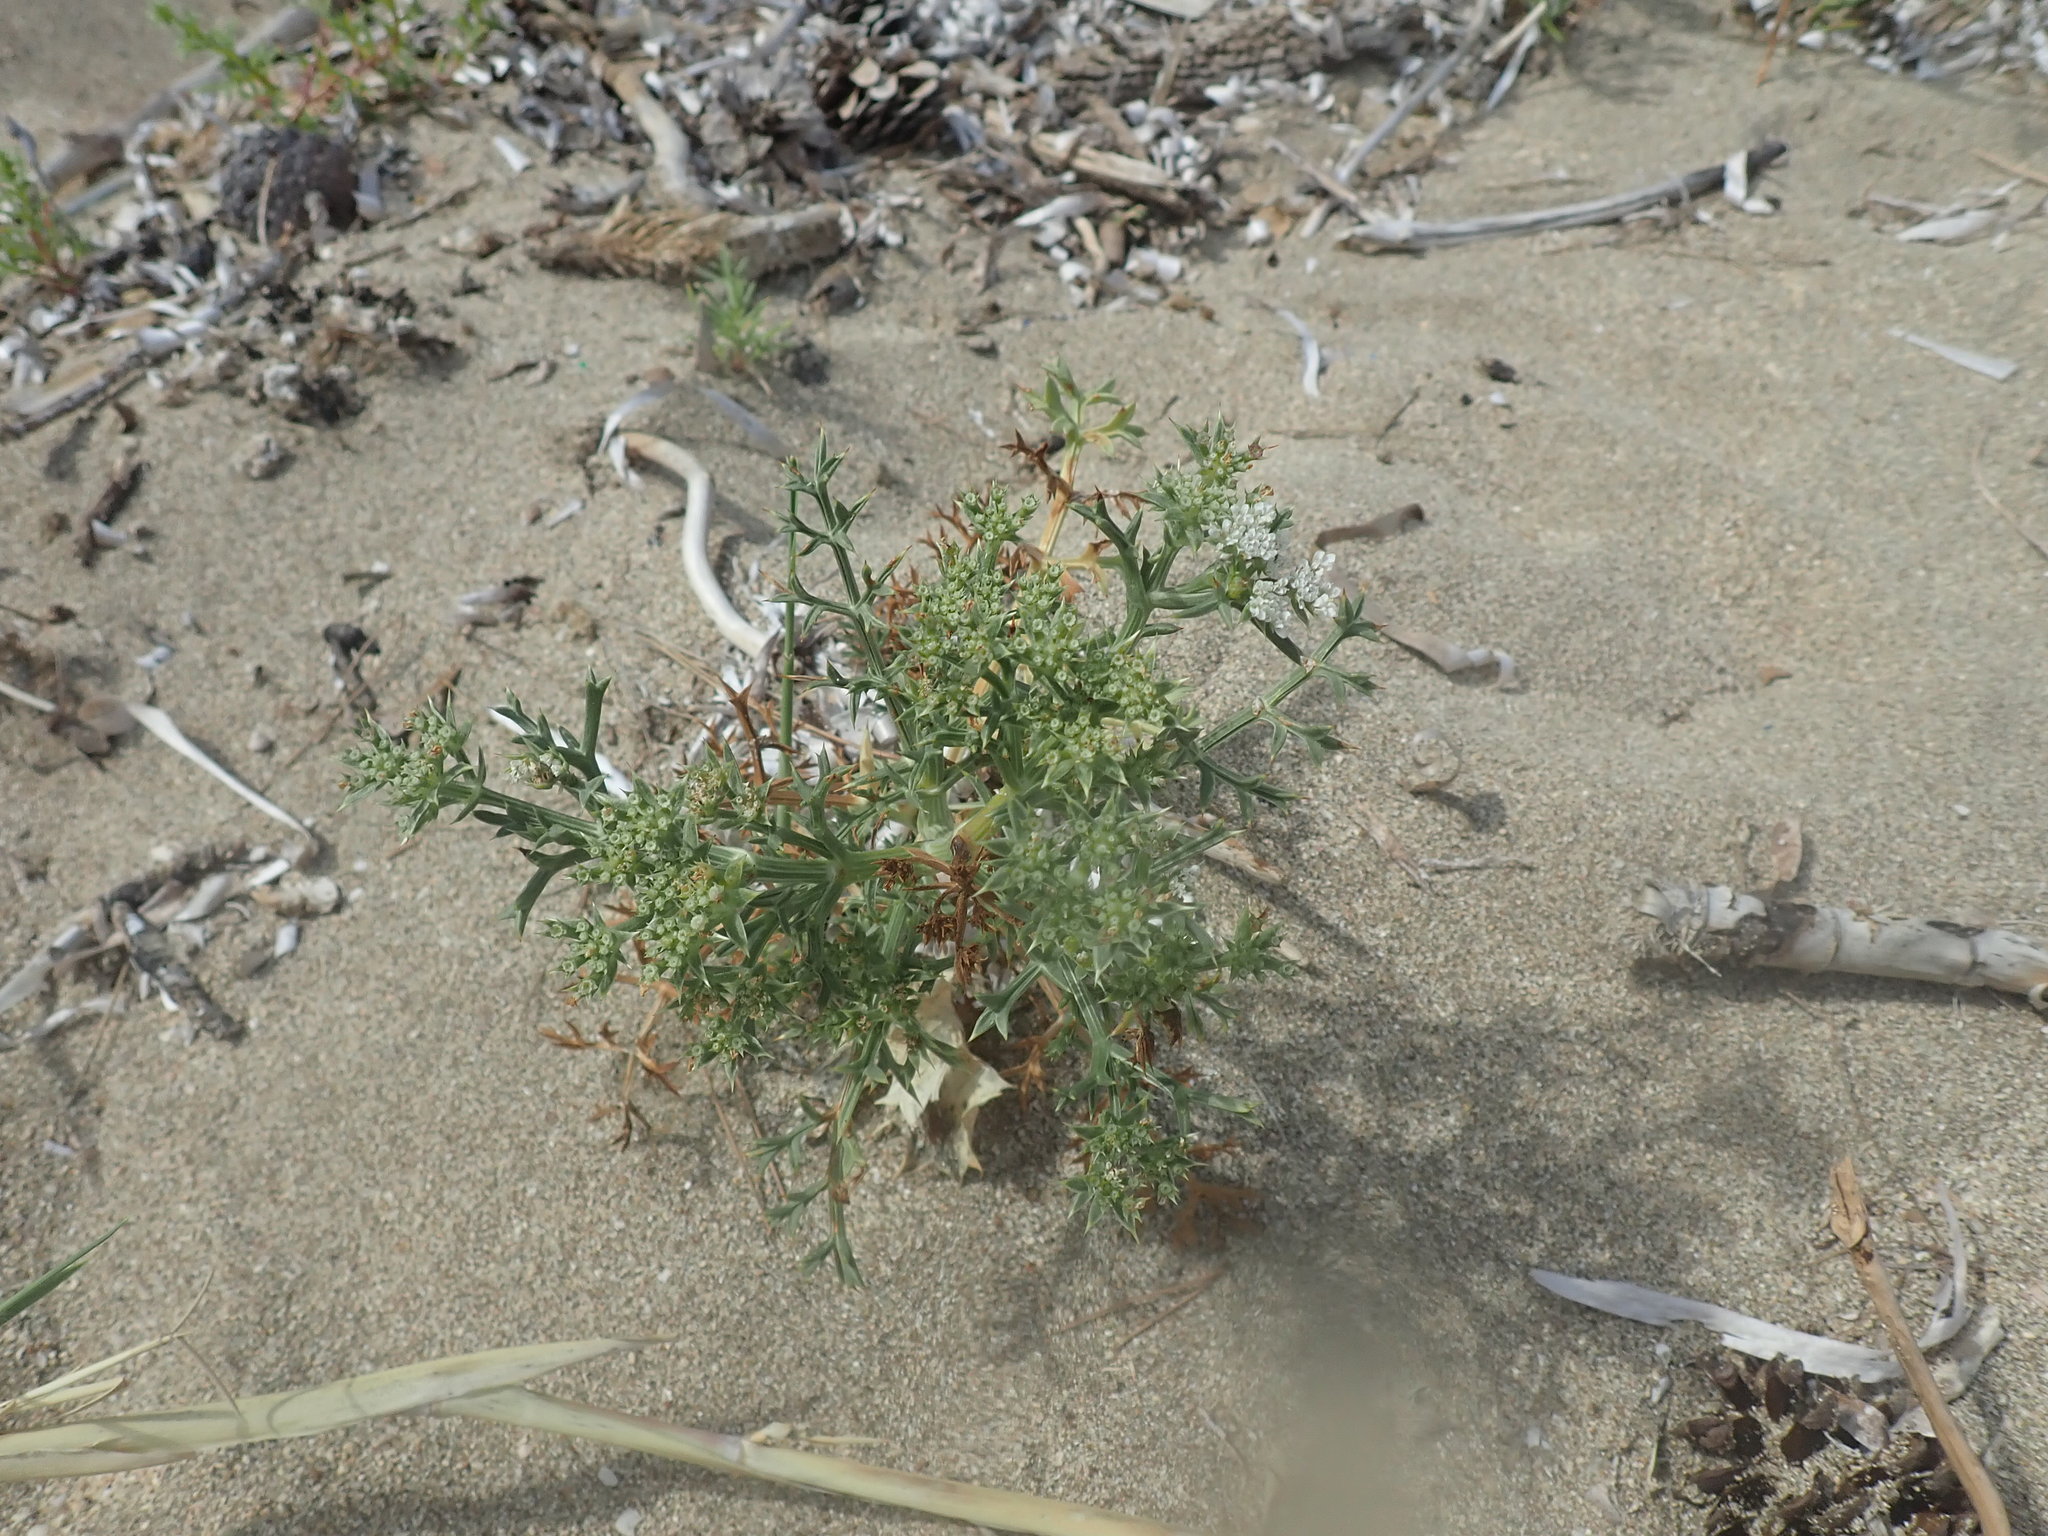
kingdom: Plantae
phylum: Tracheophyta
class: Magnoliopsida
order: Apiales
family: Apiaceae
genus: Echinophora
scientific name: Echinophora spinosa
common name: Prickly samphire
